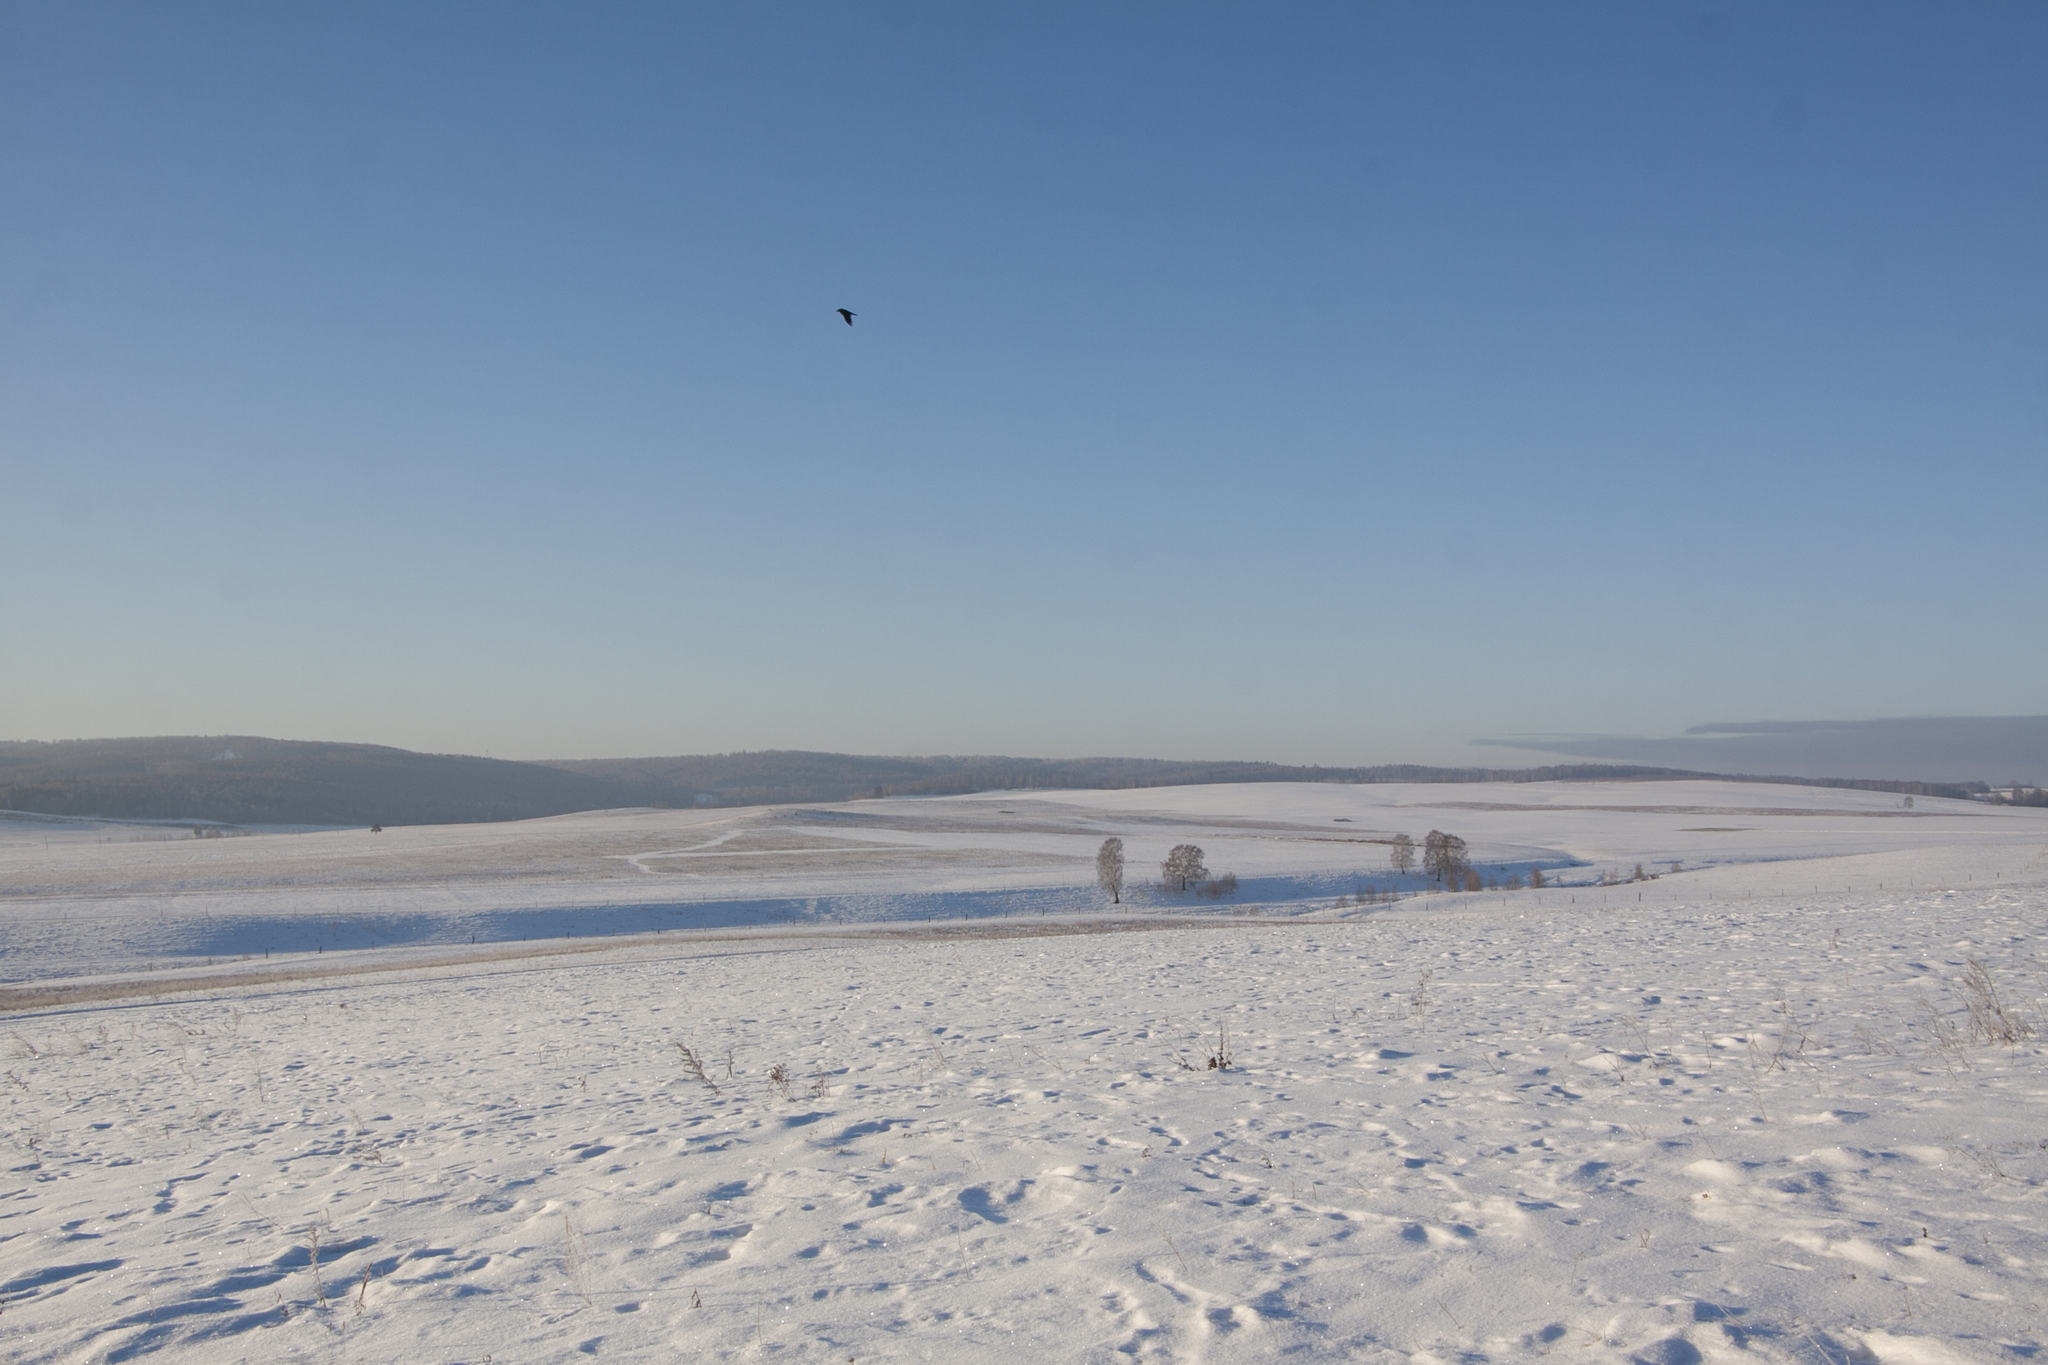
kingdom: Animalia
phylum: Chordata
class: Aves
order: Passeriformes
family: Corvidae
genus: Corvus
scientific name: Corvus corax
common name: Common raven
